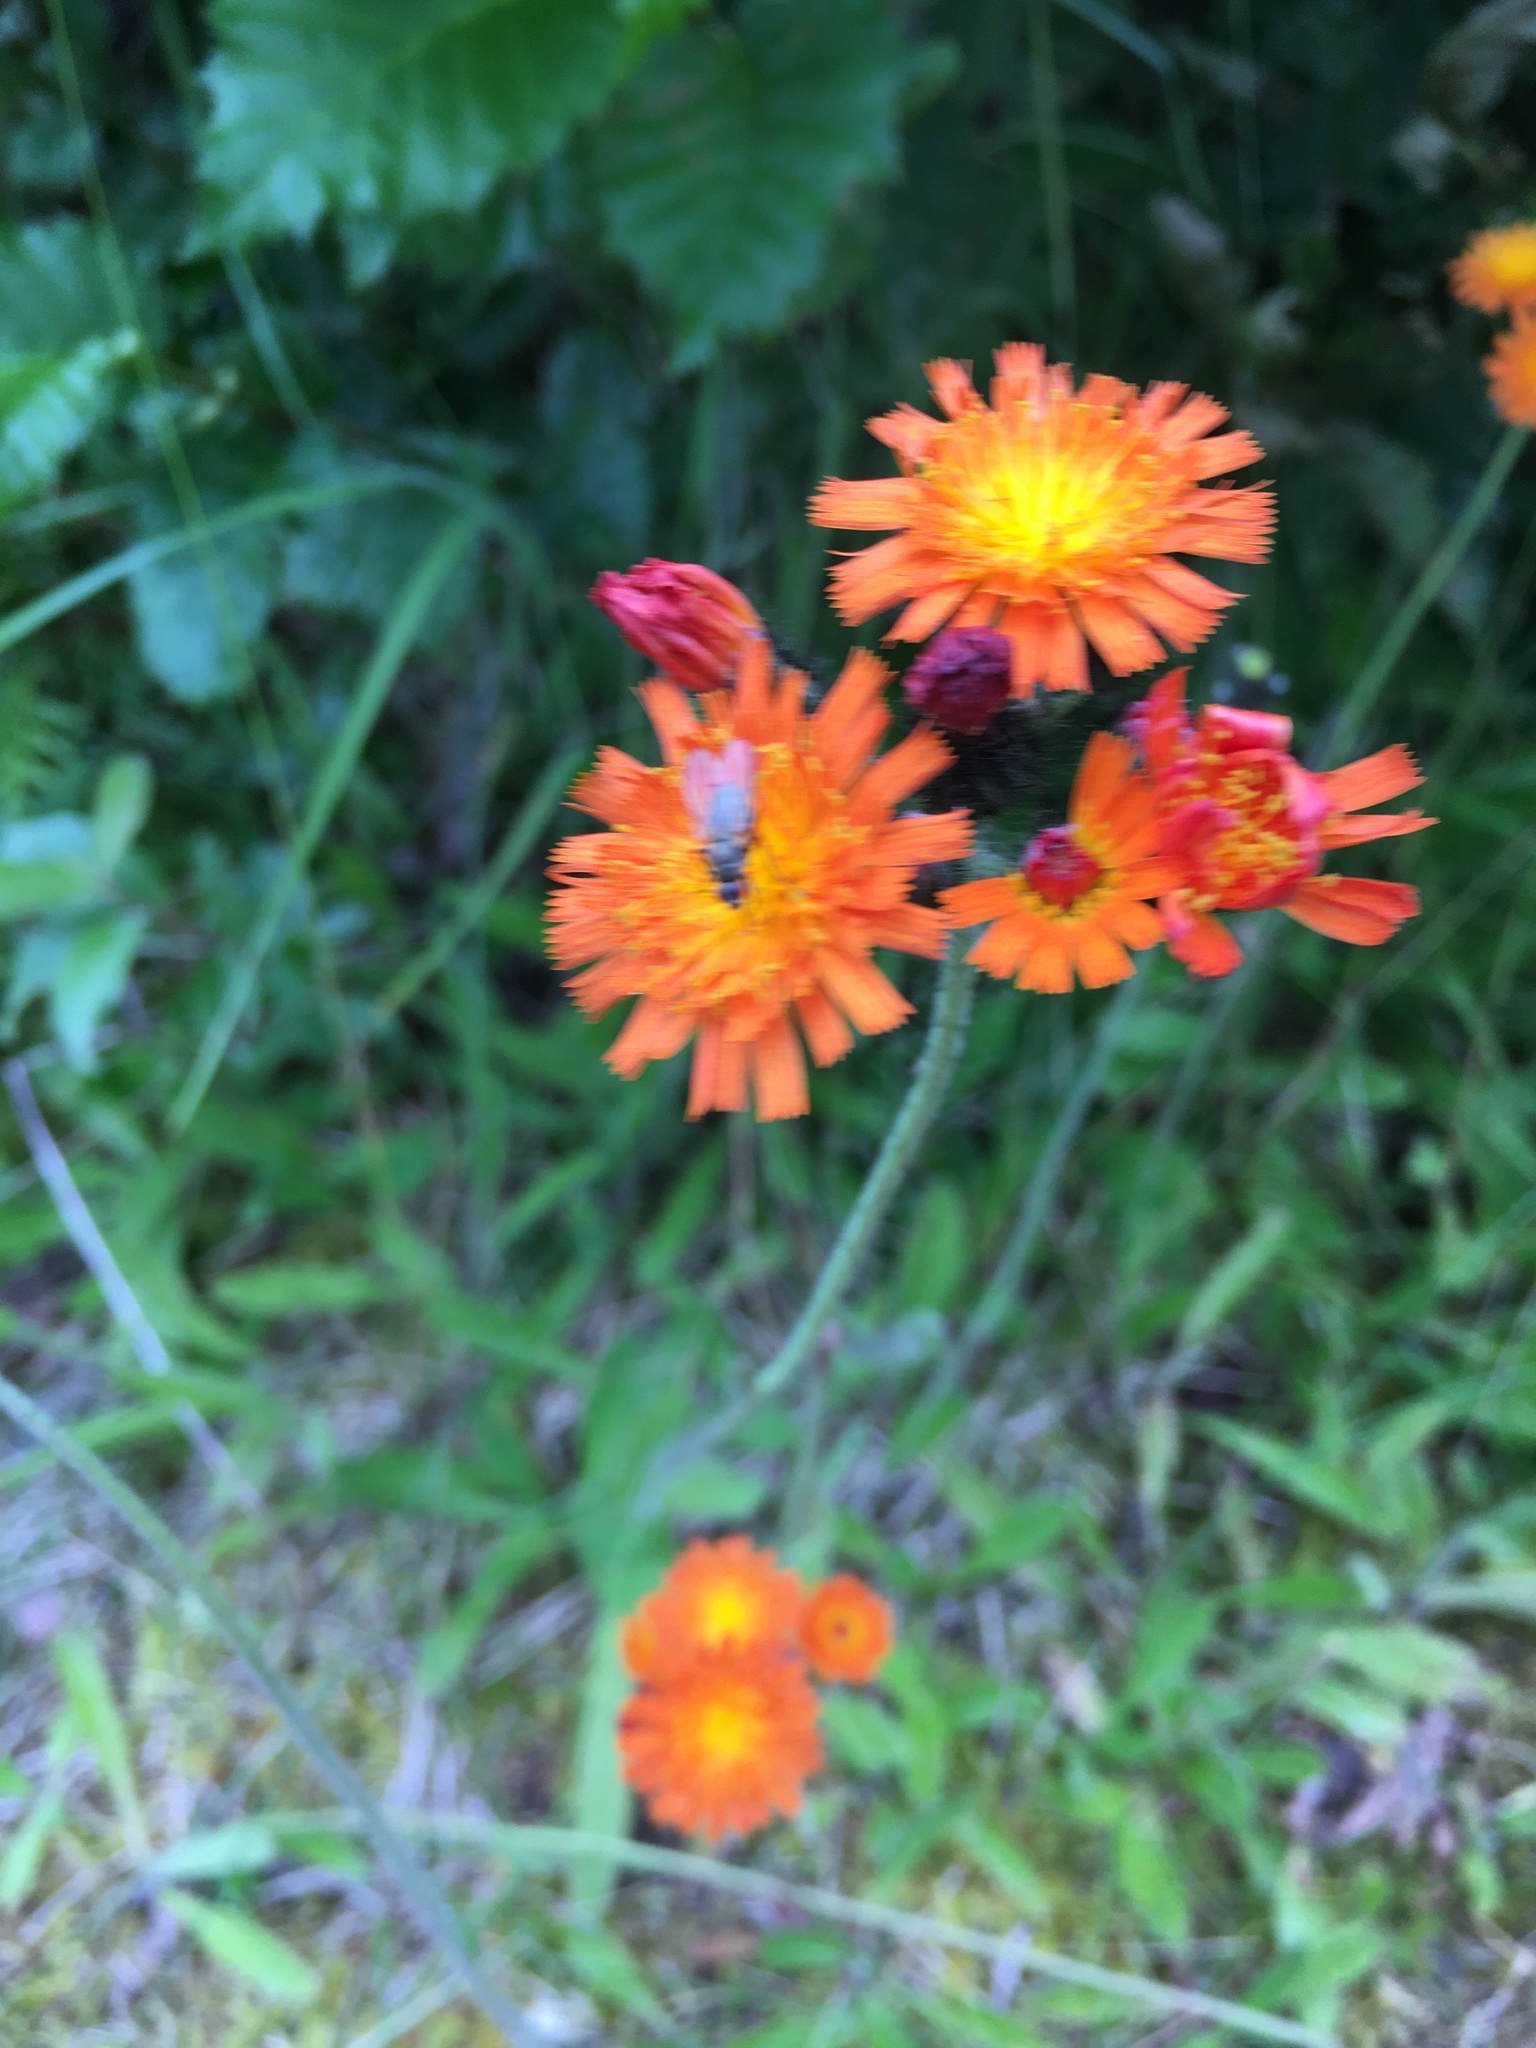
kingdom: Plantae
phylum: Tracheophyta
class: Magnoliopsida
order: Asterales
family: Asteraceae
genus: Pilosella
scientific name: Pilosella aurantiaca
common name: Fox-and-cubs
